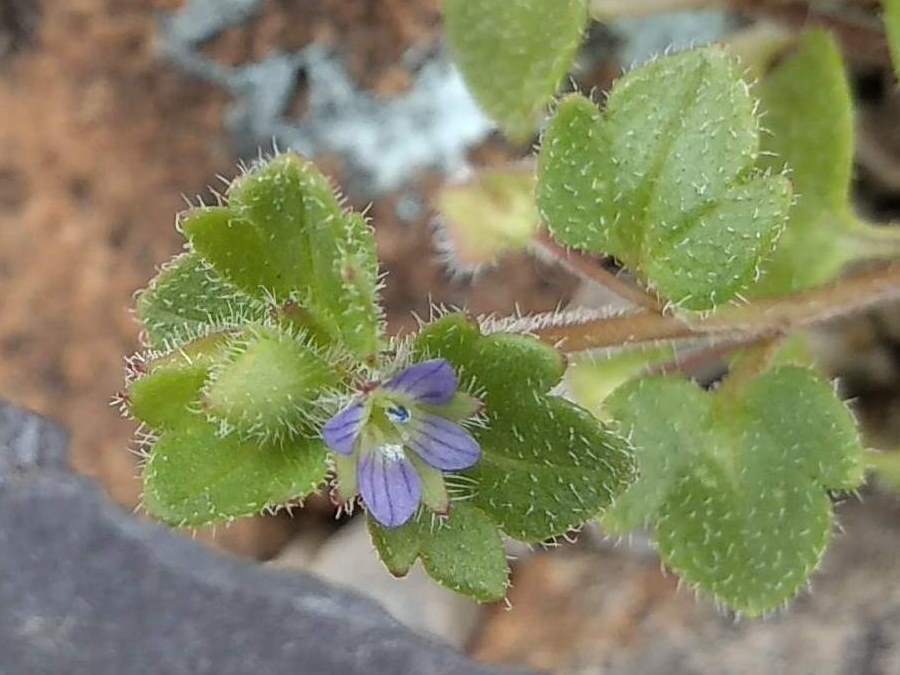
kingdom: Plantae
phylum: Tracheophyta
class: Magnoliopsida
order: Lamiales
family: Plantaginaceae
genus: Veronica
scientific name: Veronica hederifolia
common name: Ivy-leaved speedwell
